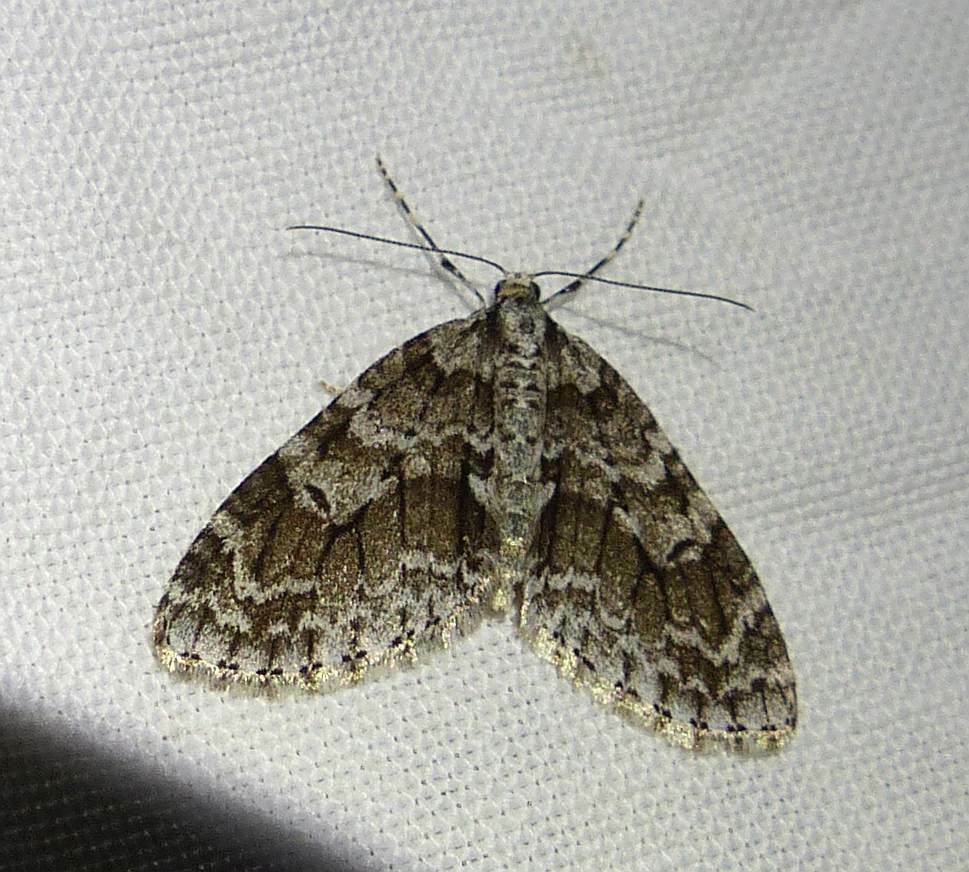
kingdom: Animalia
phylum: Arthropoda
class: Insecta
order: Lepidoptera
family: Geometridae
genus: Cladara
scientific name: Cladara limitaria
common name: Mottled gray carpet
